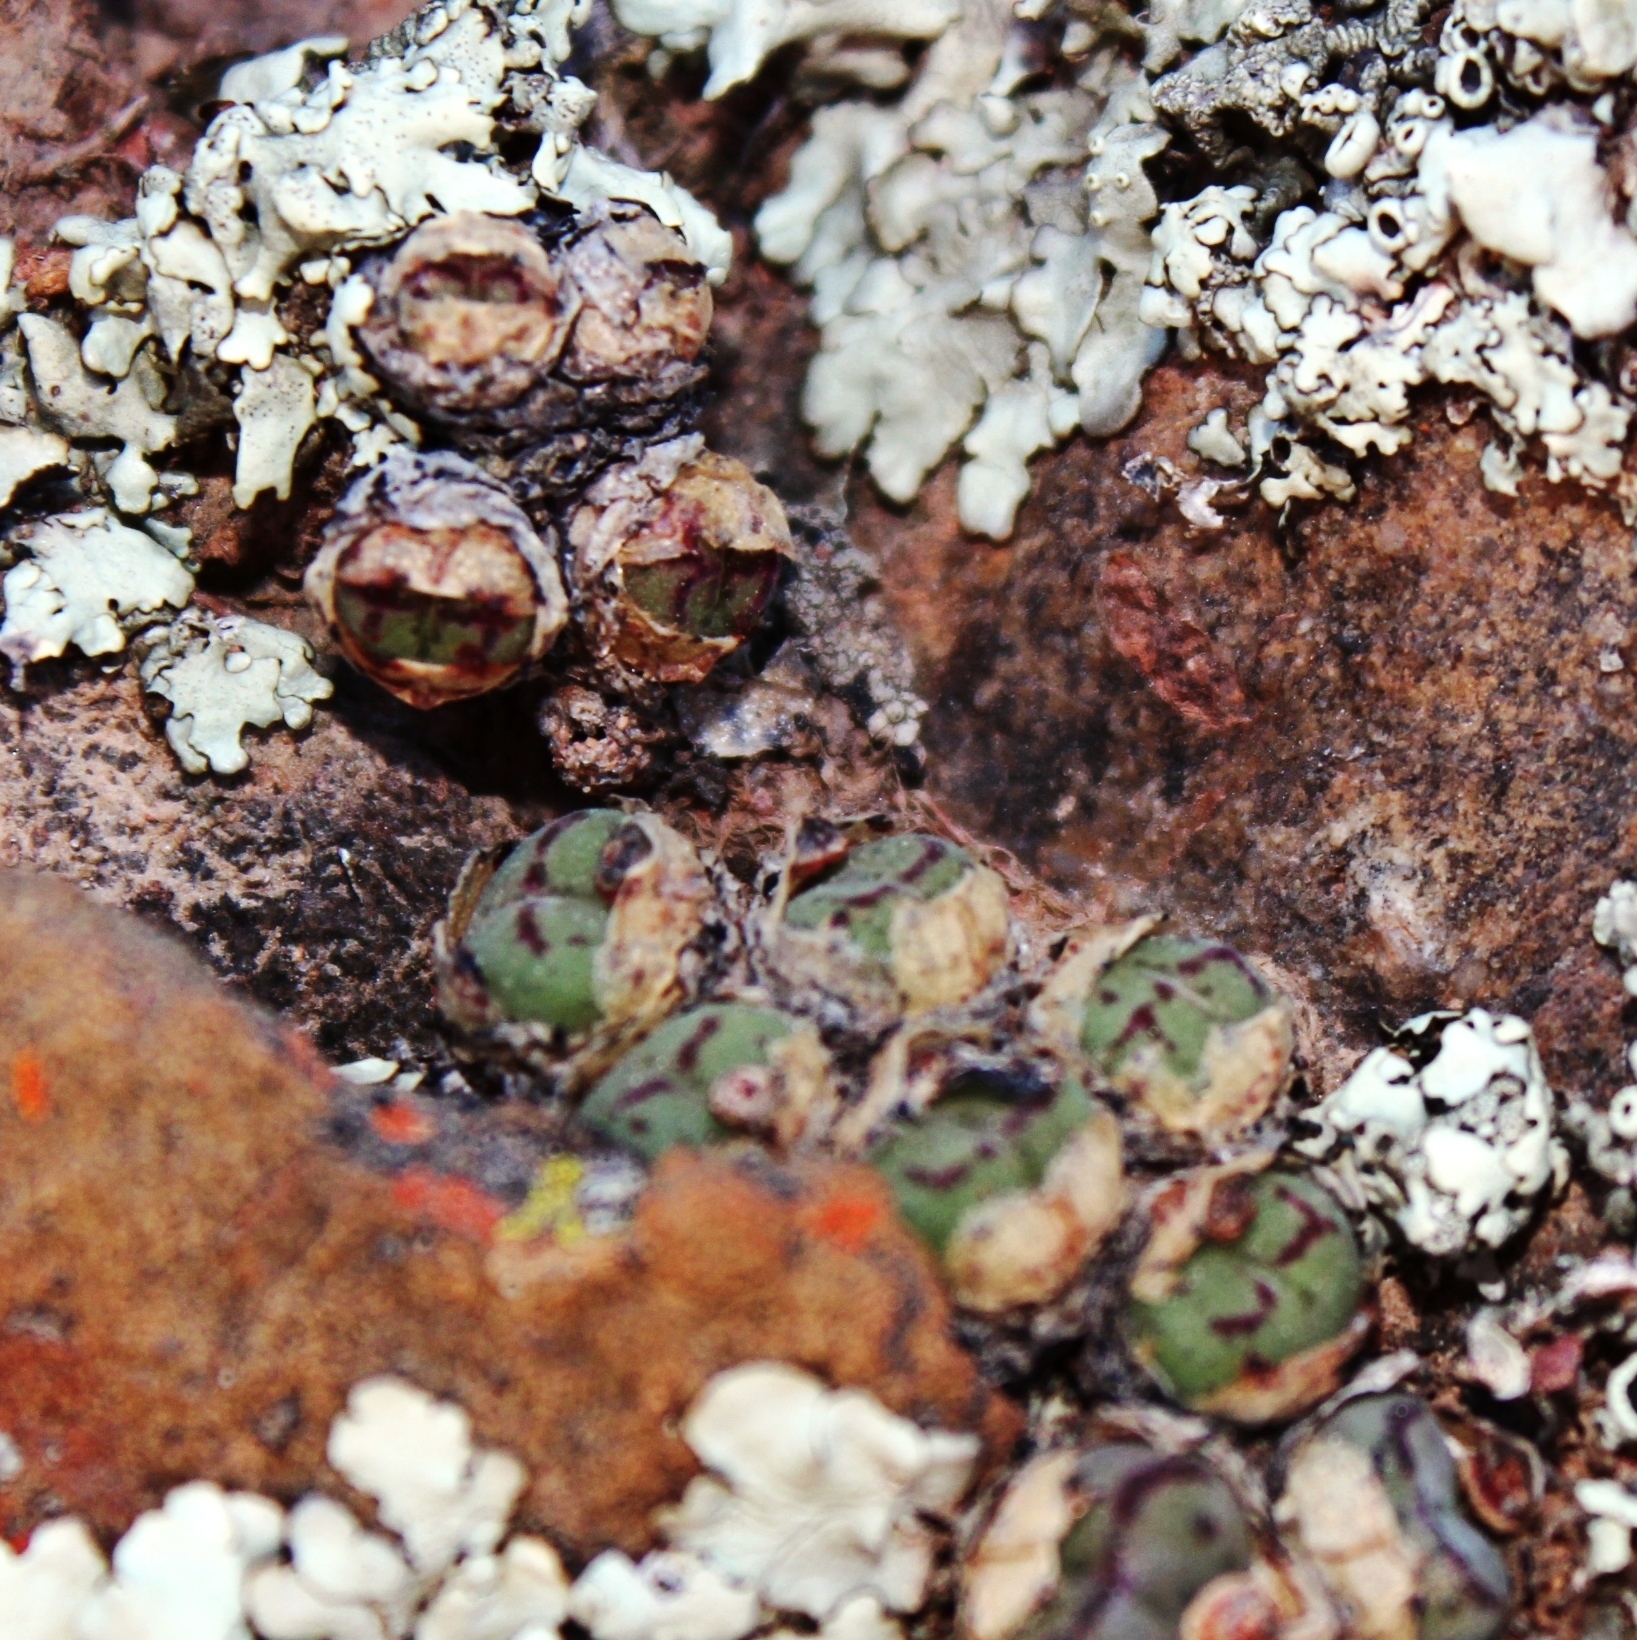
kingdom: Plantae
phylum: Tracheophyta
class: Magnoliopsida
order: Caryophyllales
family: Aizoaceae
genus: Conophytum
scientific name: Conophytum ficiforme
